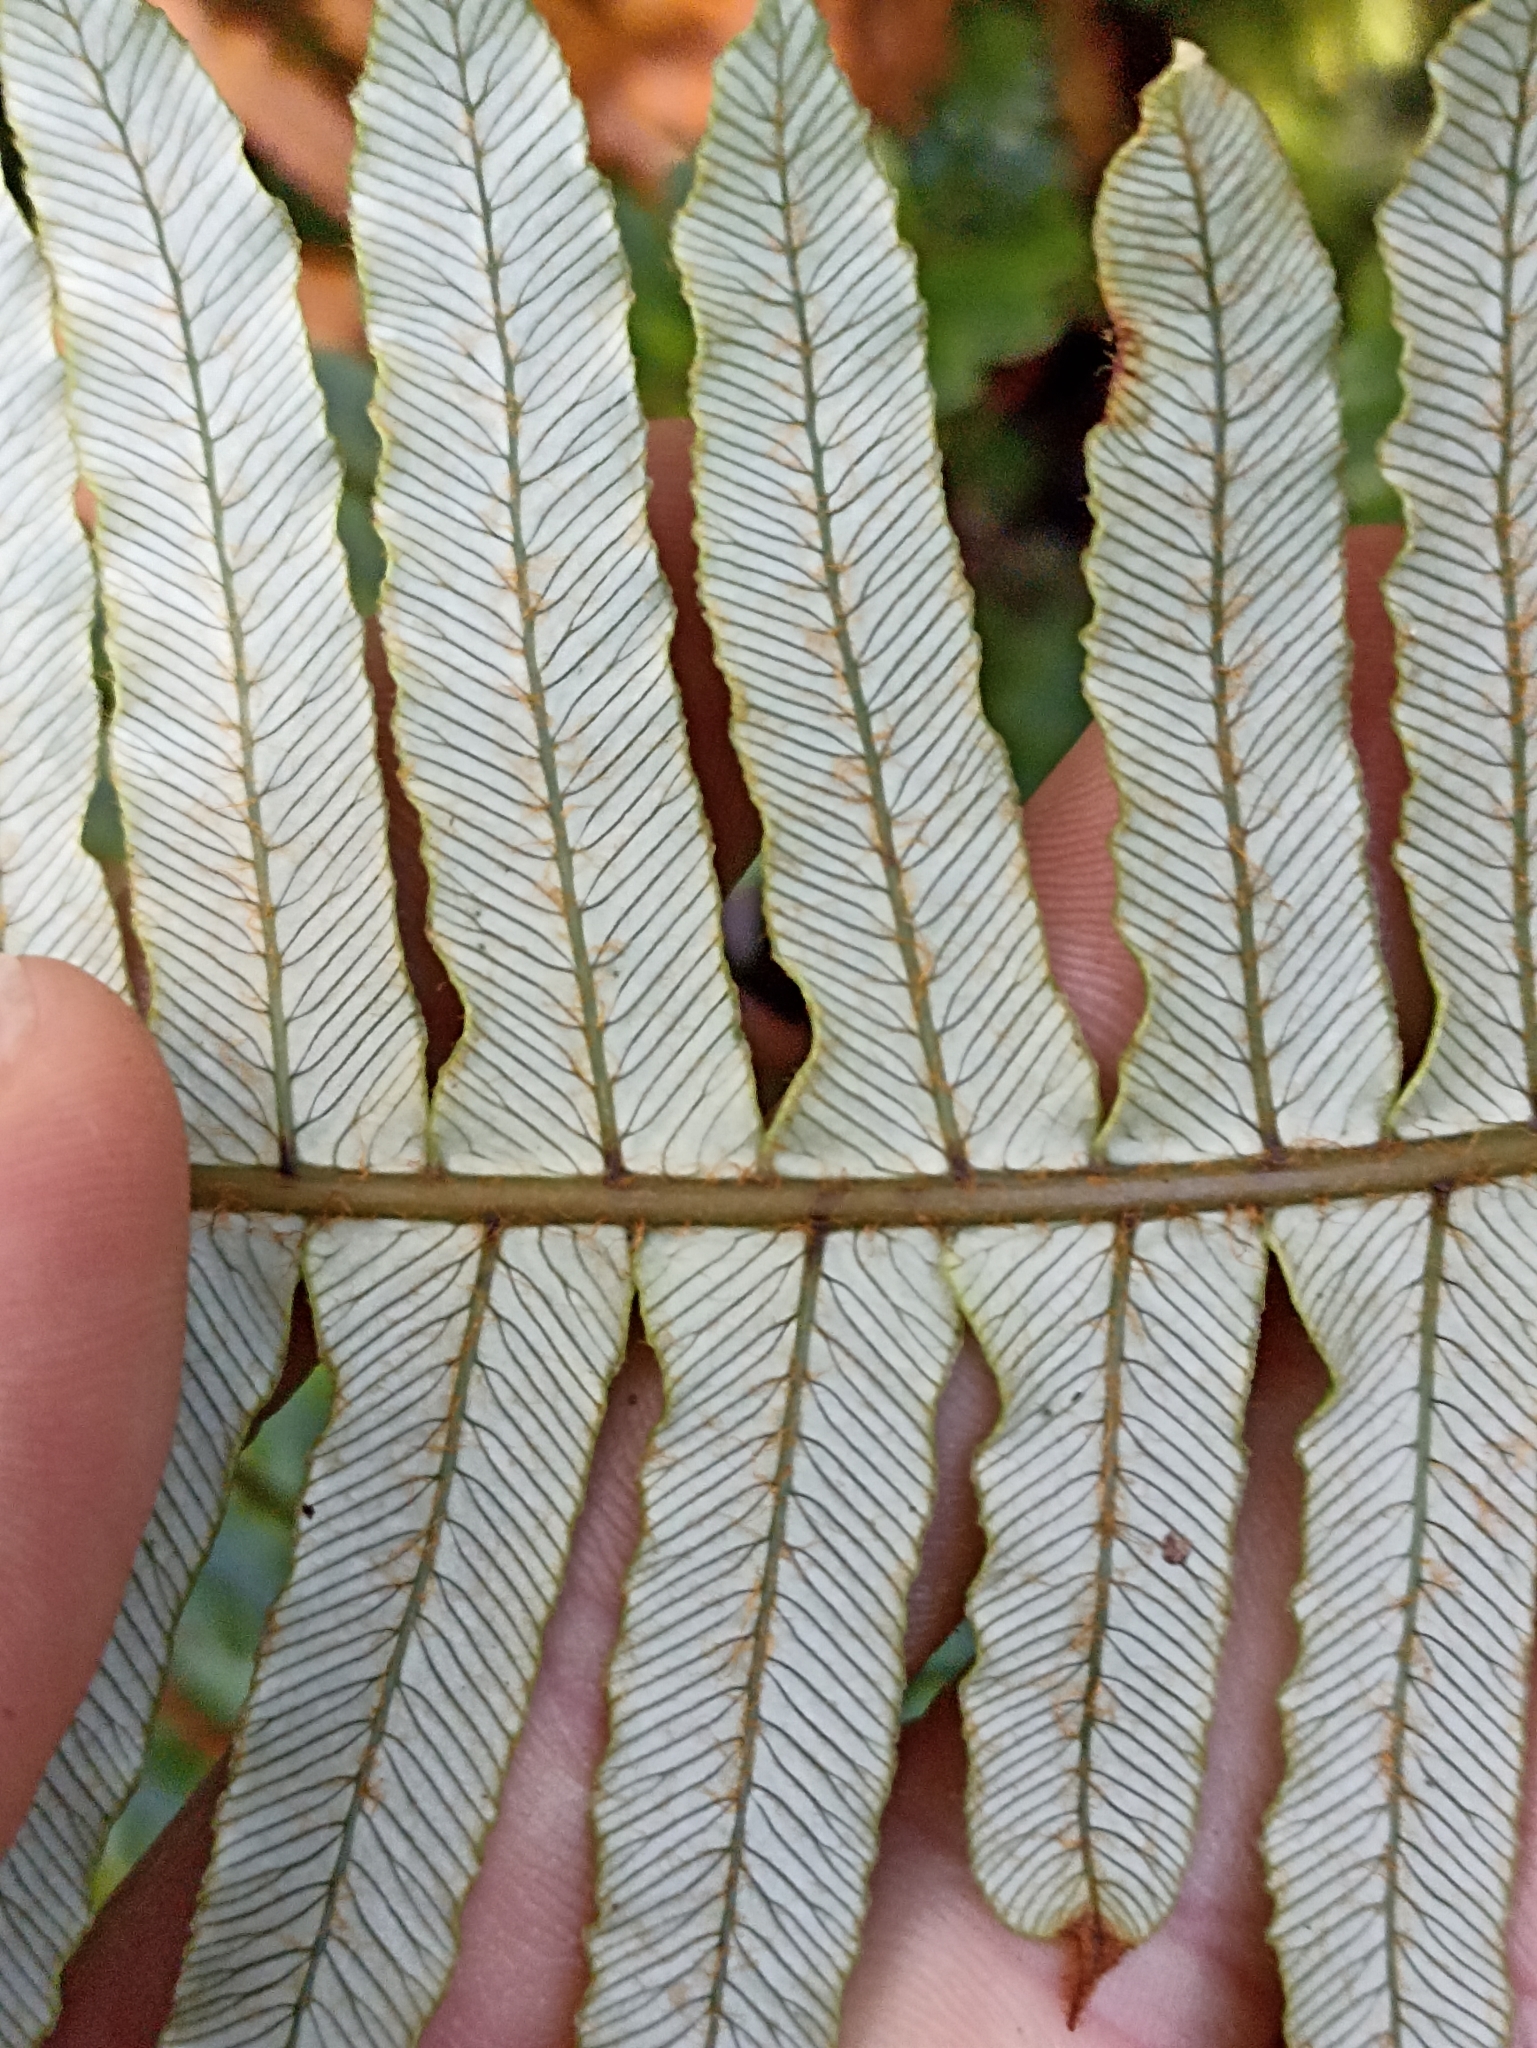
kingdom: Plantae
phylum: Tracheophyta
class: Polypodiopsida
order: Polypodiales
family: Blechnaceae
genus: Lomaria
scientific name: Lomaria discolor
